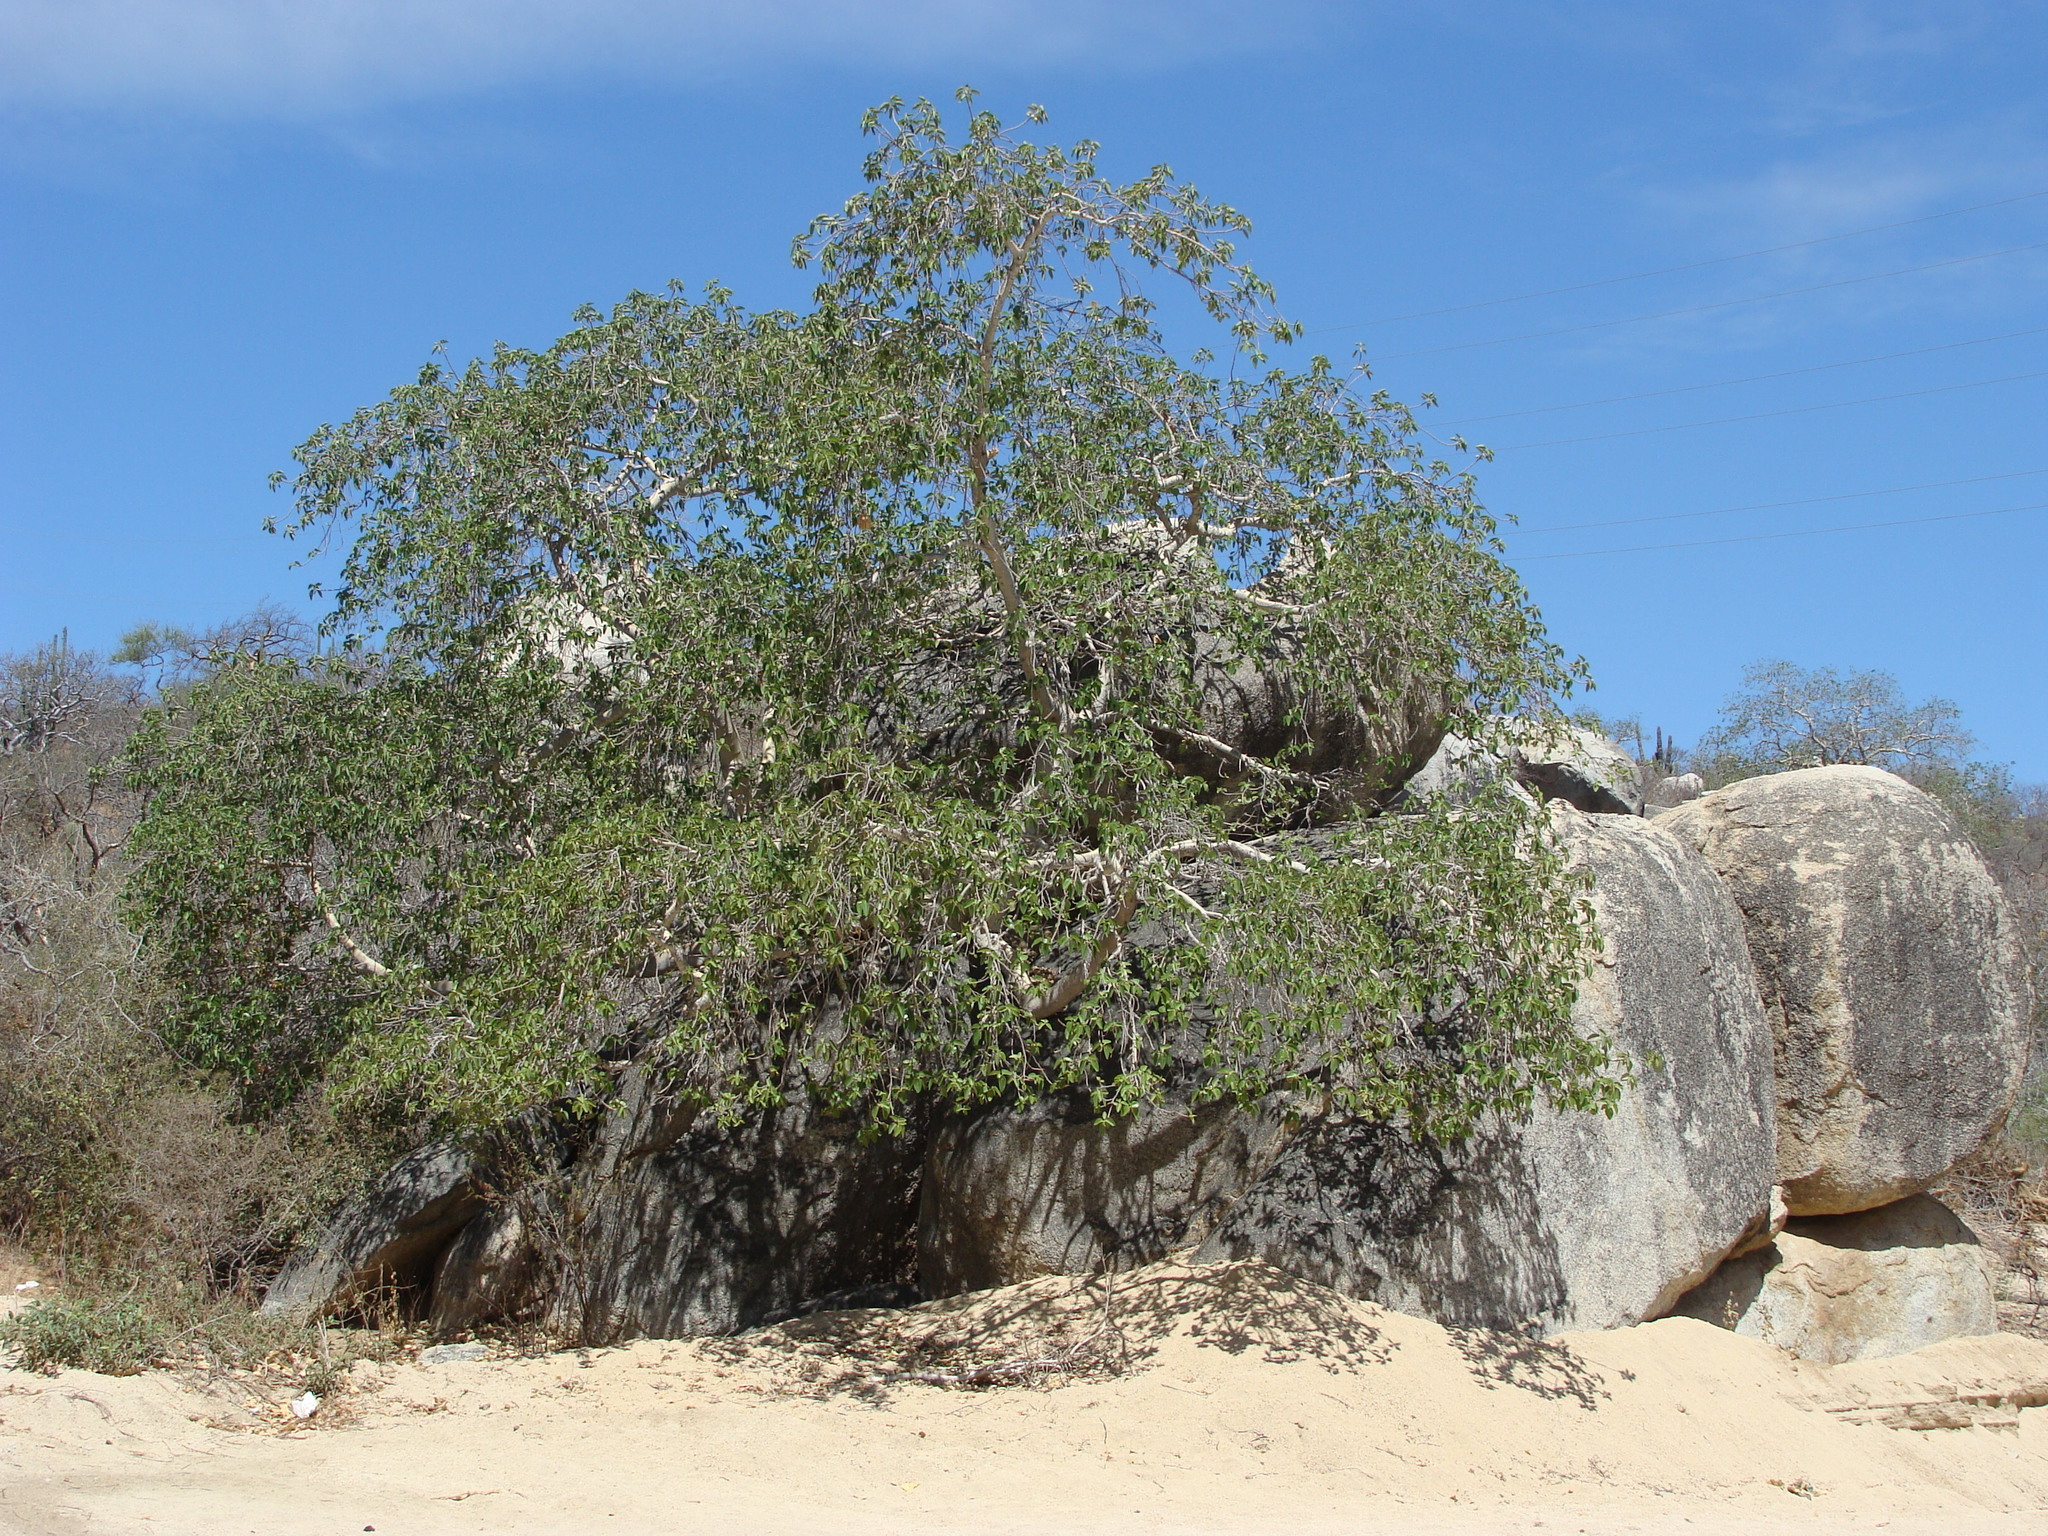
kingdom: Plantae
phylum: Tracheophyta
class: Magnoliopsida
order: Rosales
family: Moraceae
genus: Ficus
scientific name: Ficus petiolaris
